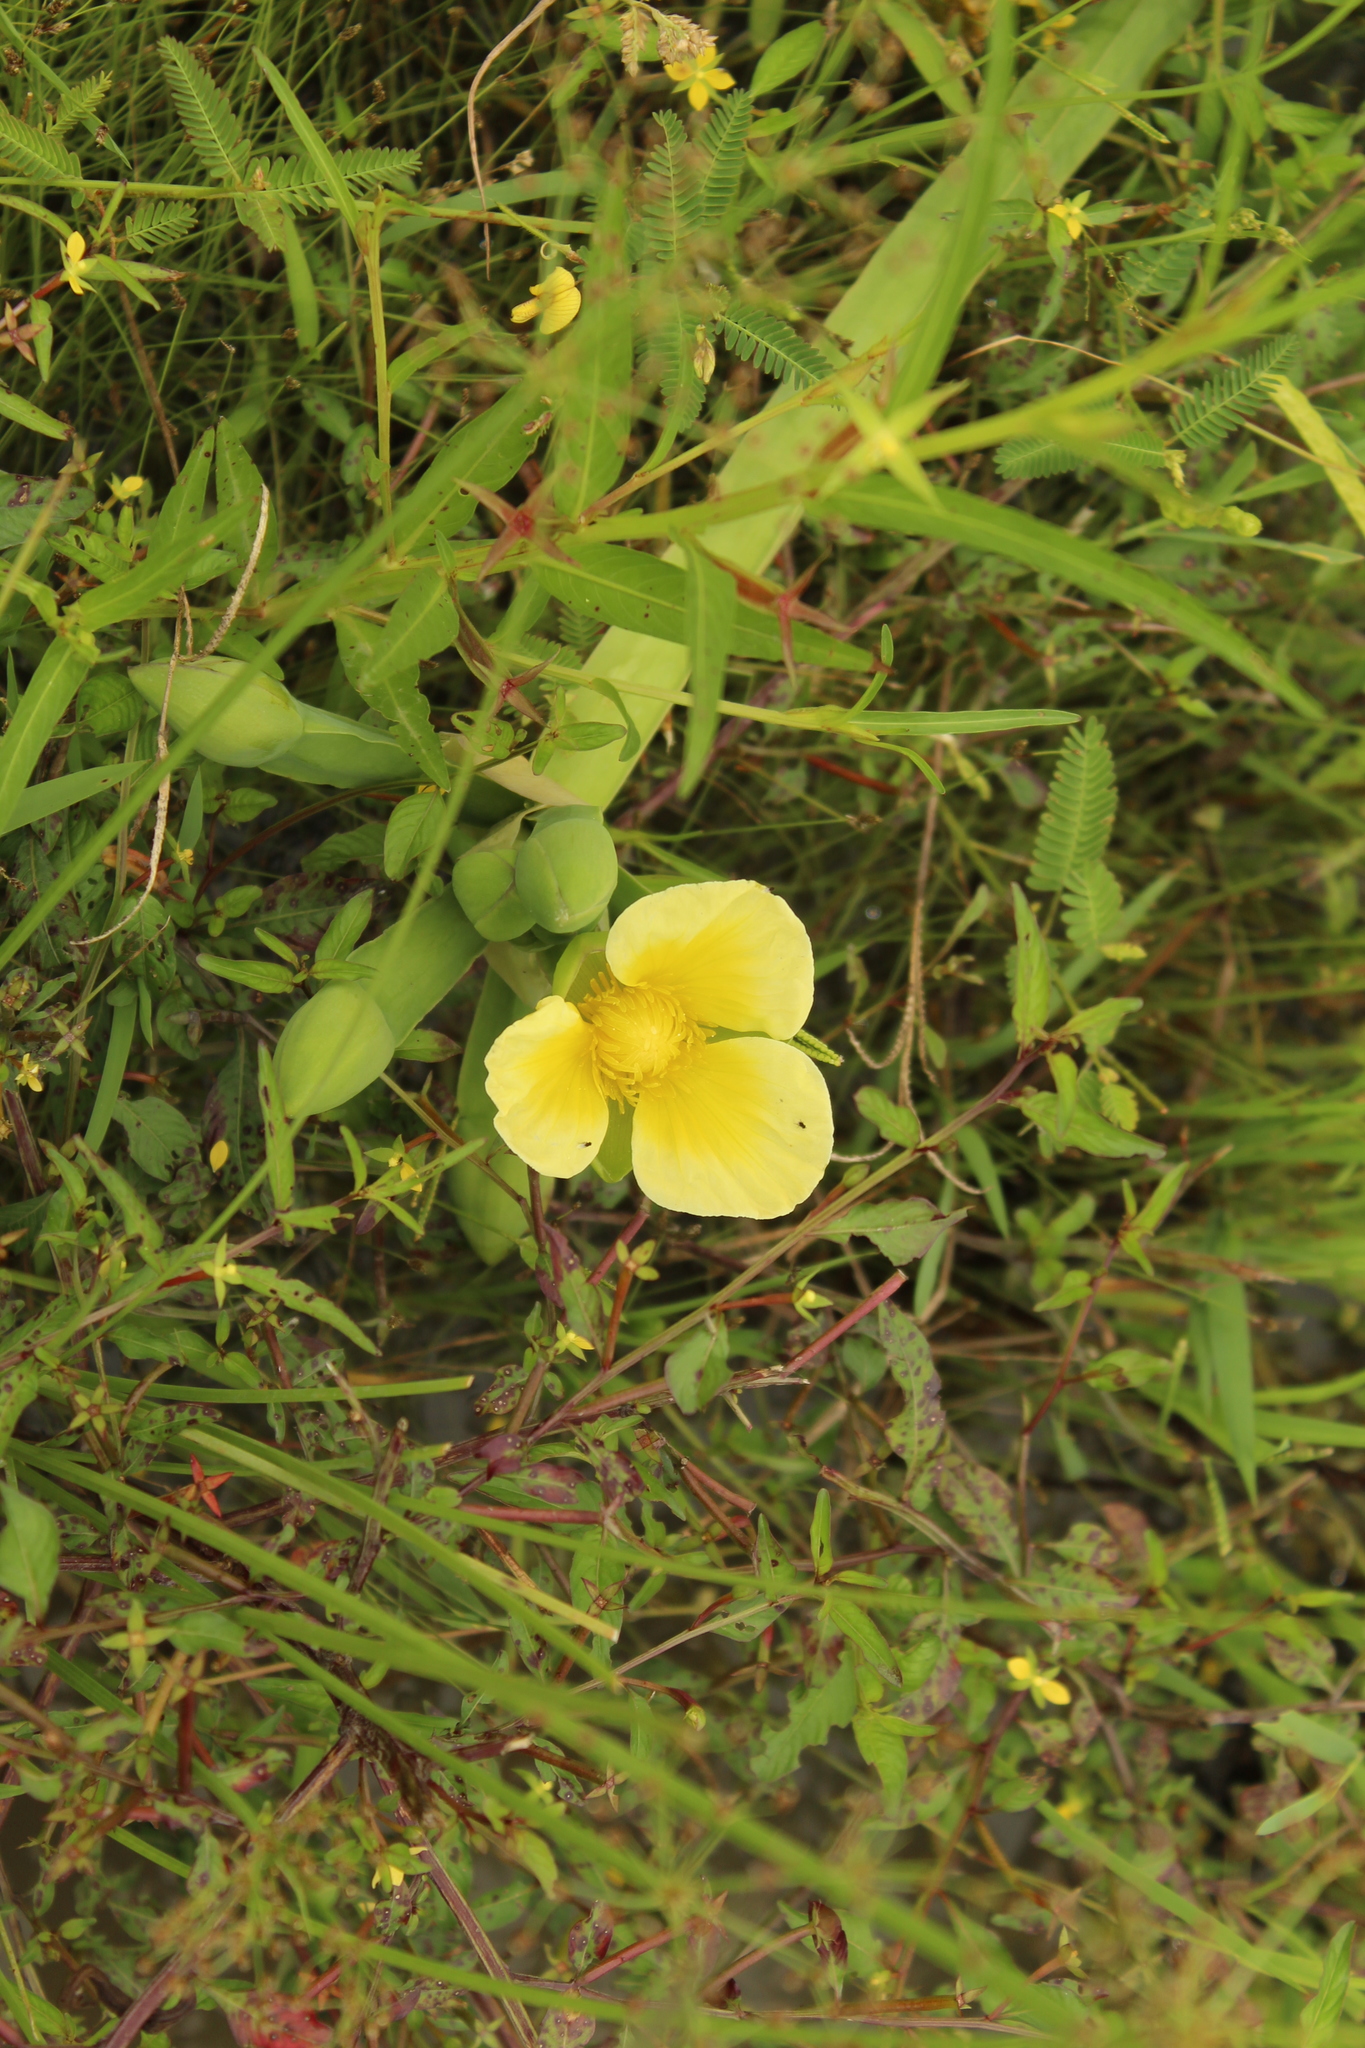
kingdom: Plantae
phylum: Tracheophyta
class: Liliopsida
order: Alismatales
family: Alismataceae
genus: Limnocharis
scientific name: Limnocharis flava
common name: Sawah-flower-rush
